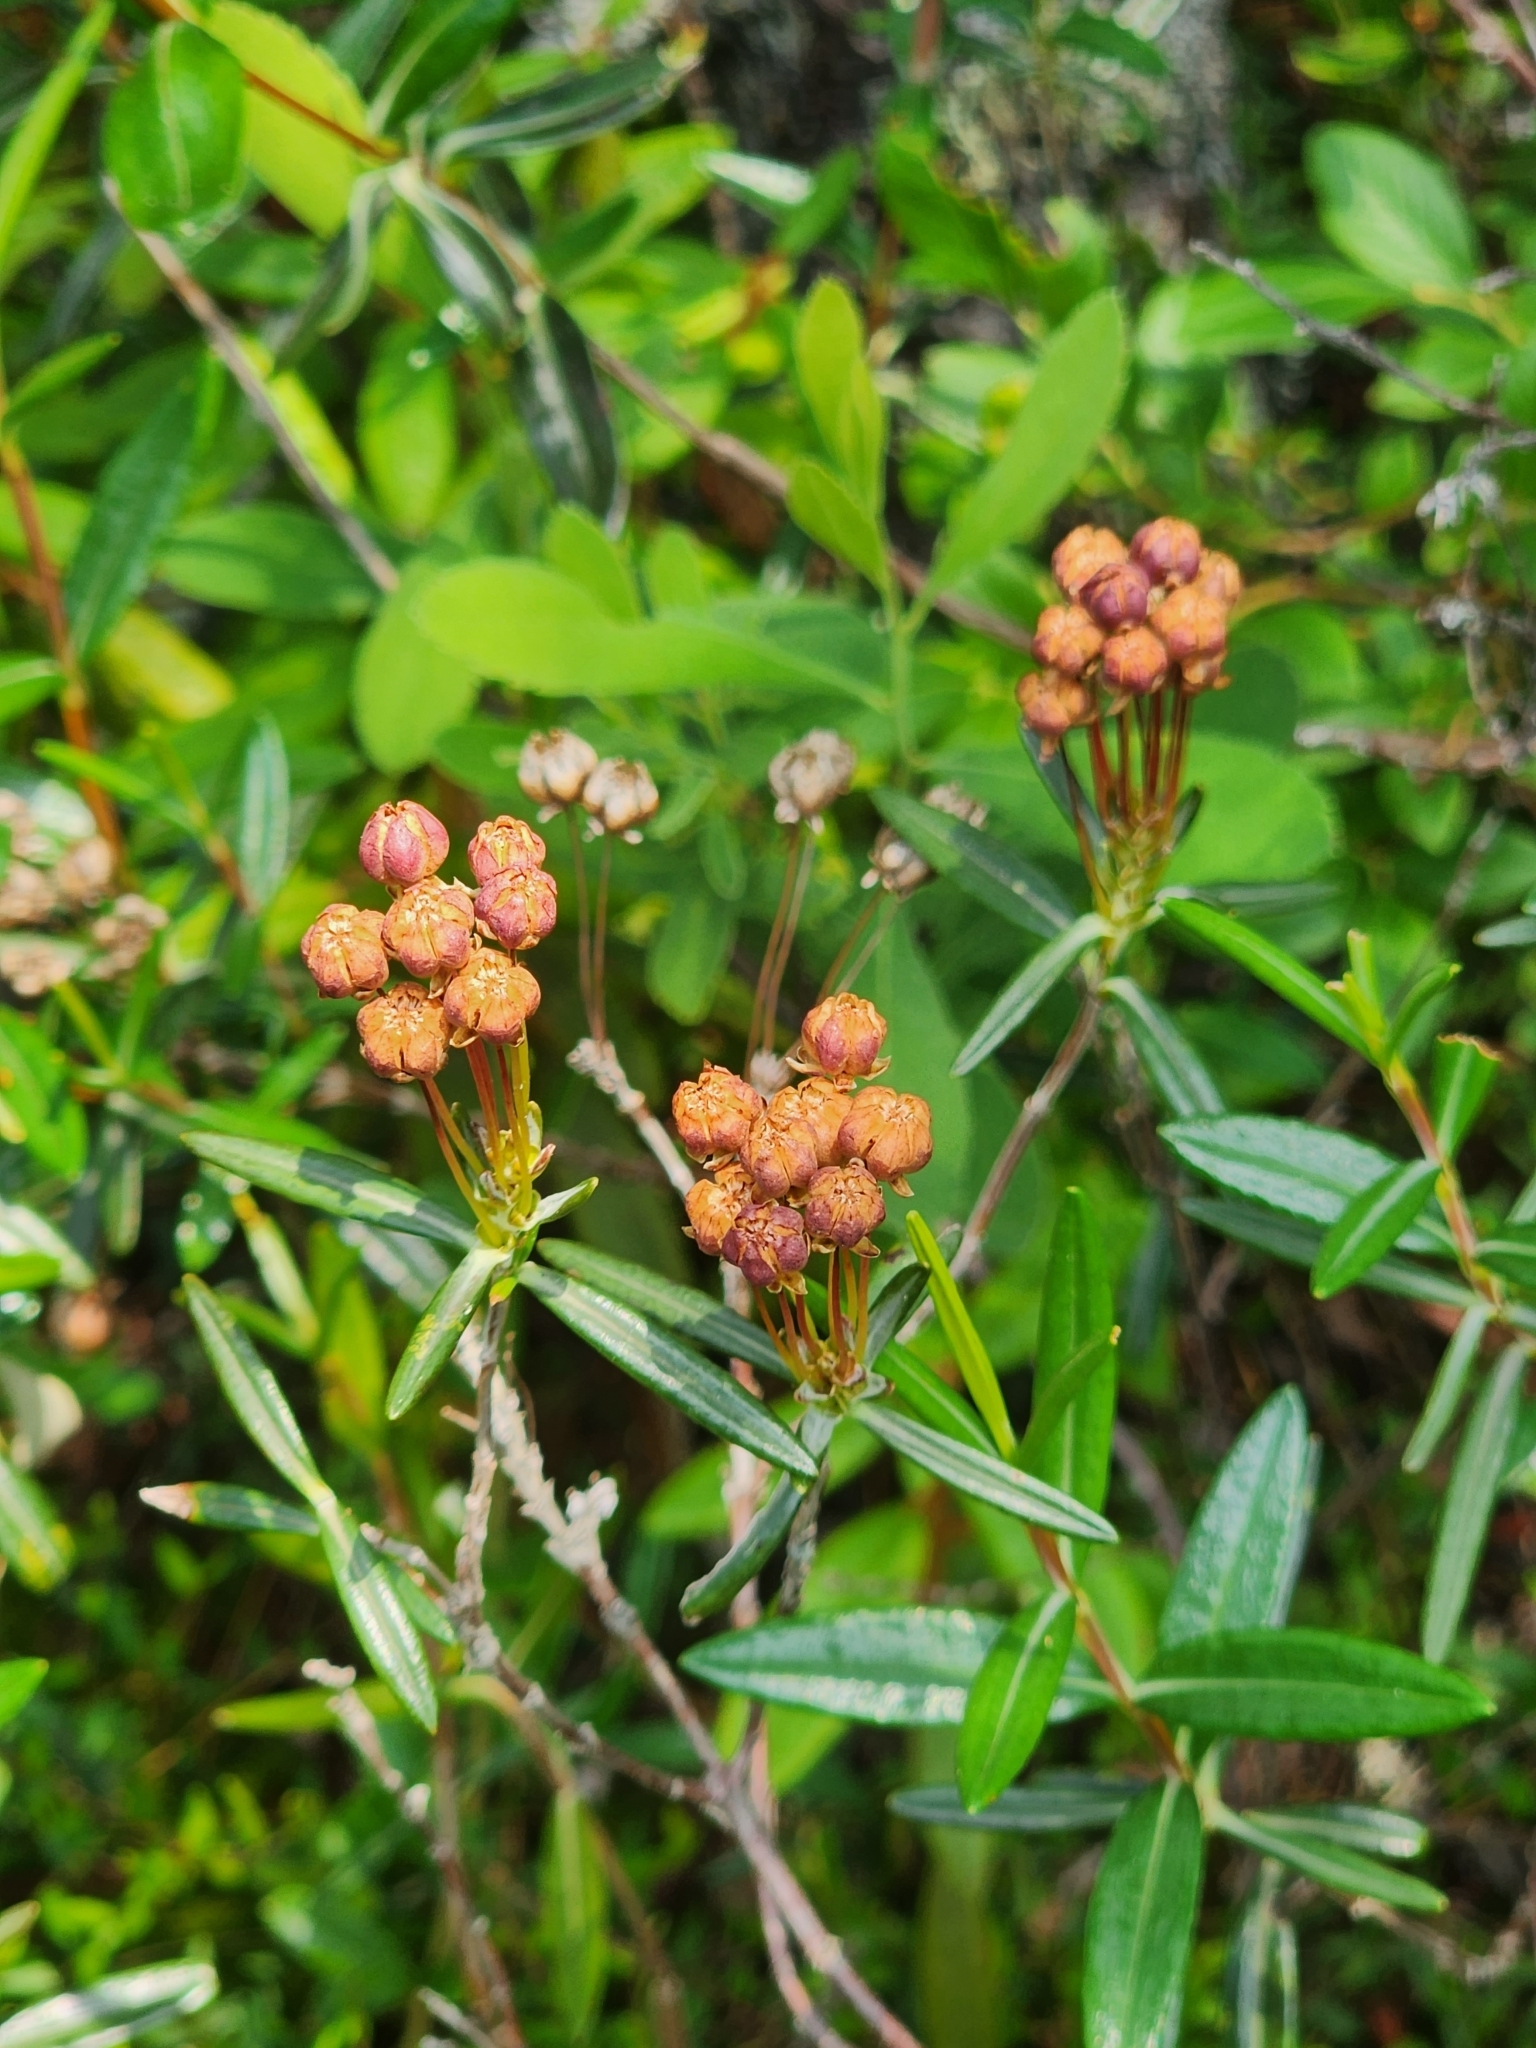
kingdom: Plantae
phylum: Tracheophyta
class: Magnoliopsida
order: Ericales
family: Ericaceae
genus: Kalmia
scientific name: Kalmia polifolia
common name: Bog-laurel
